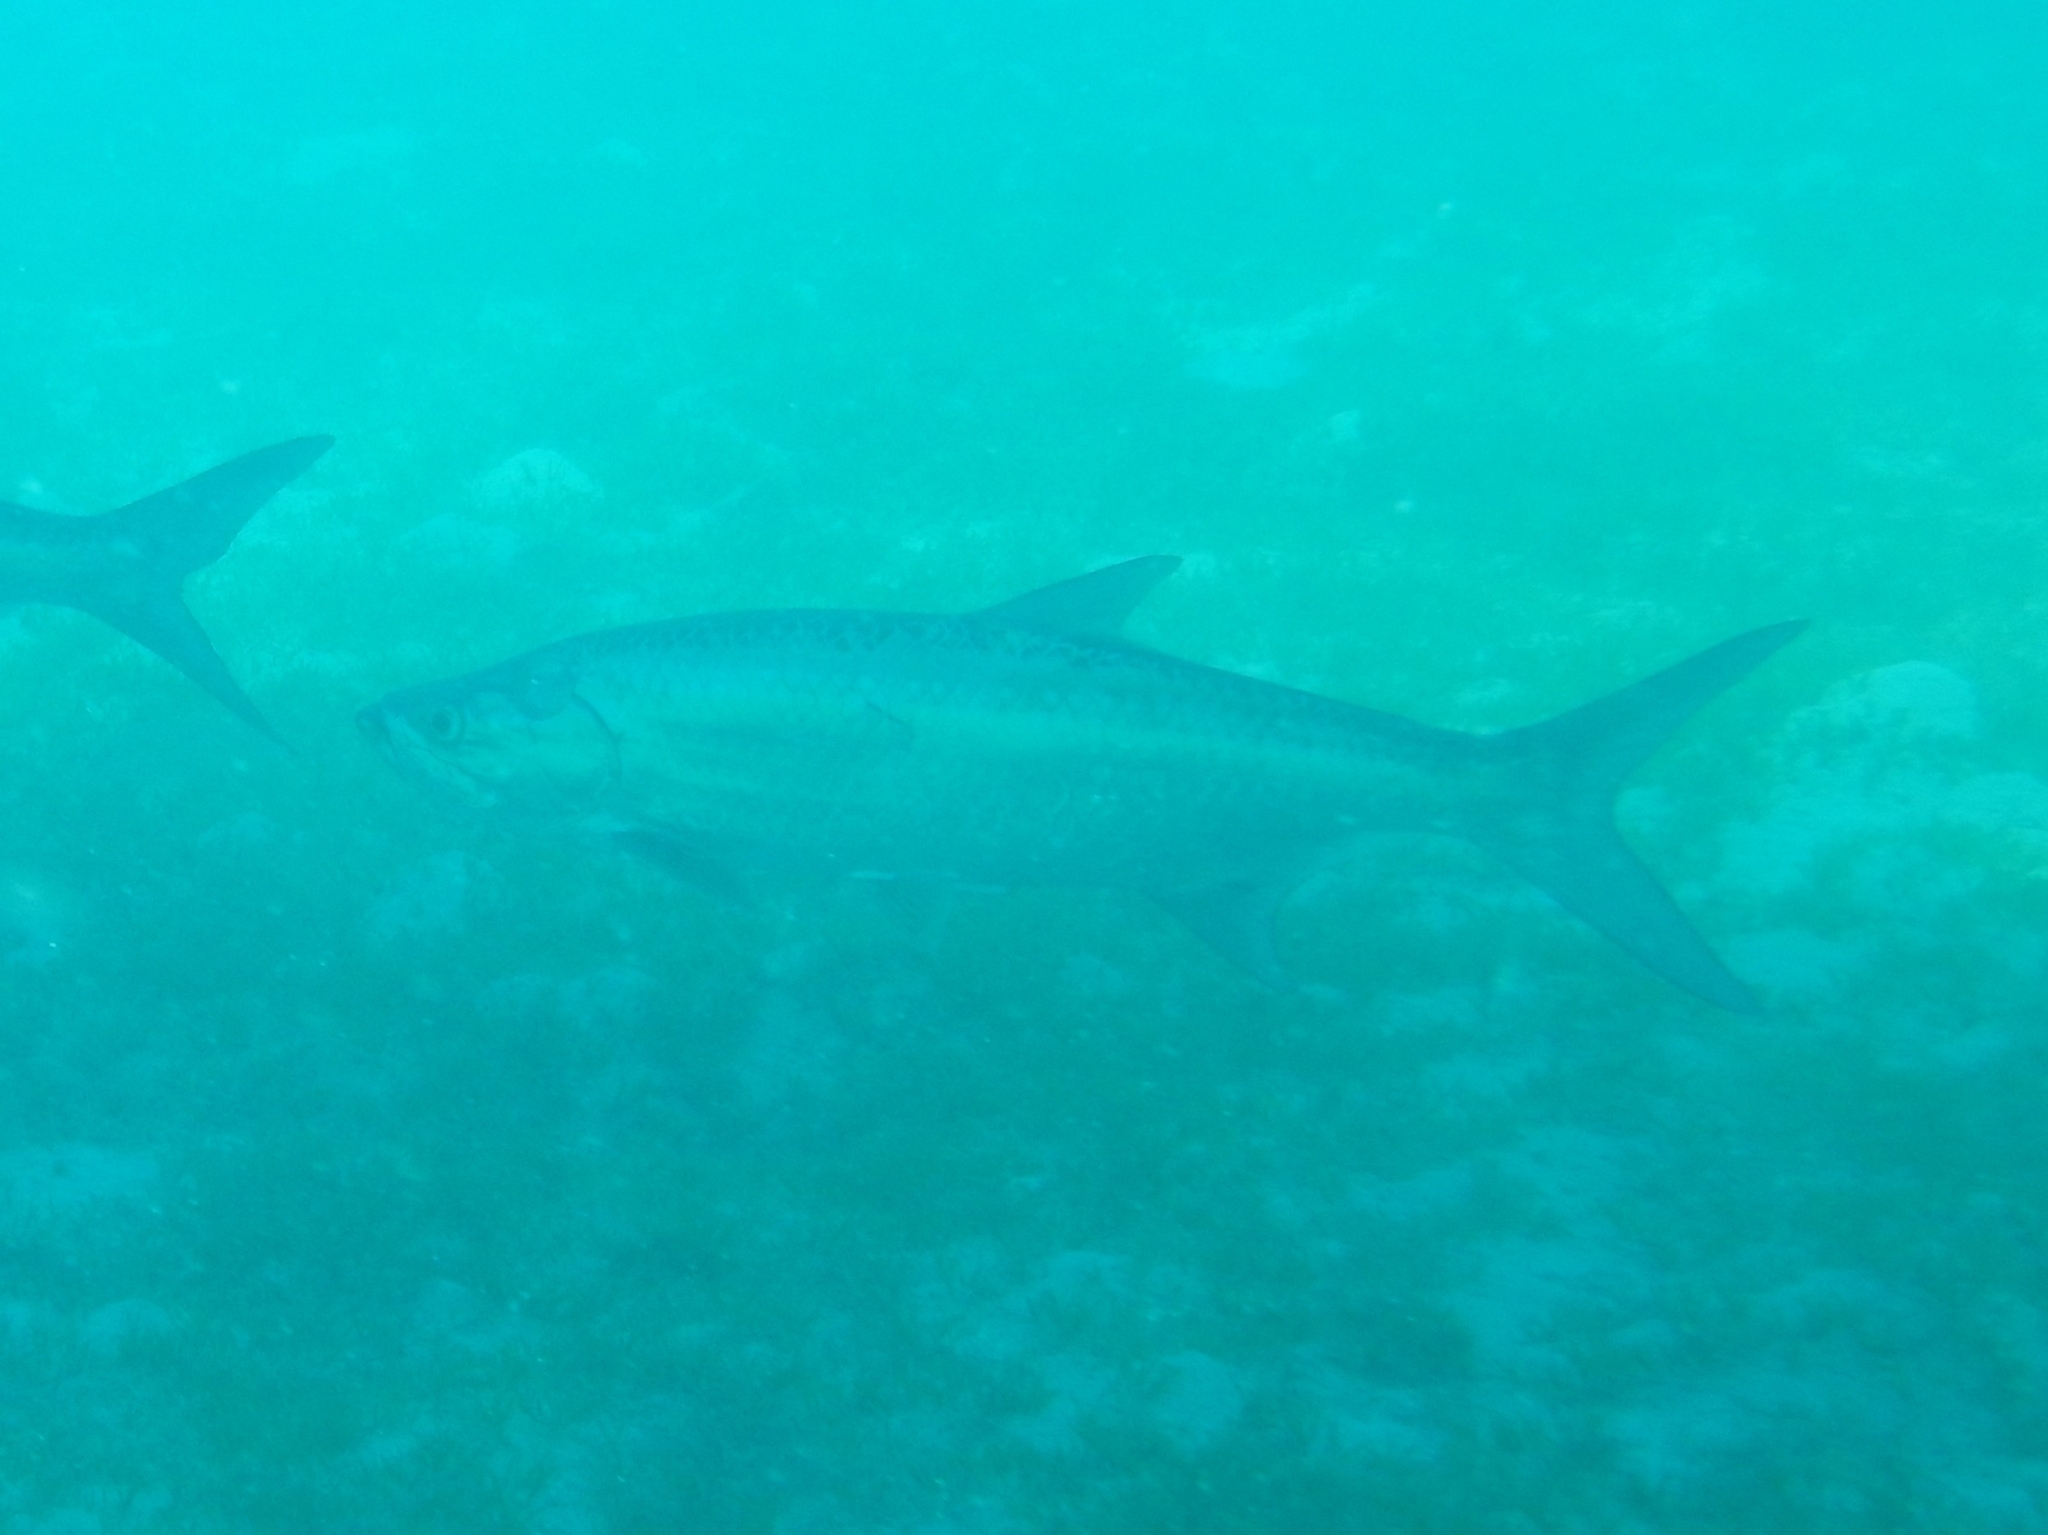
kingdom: Animalia
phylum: Chordata
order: Elopiformes
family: Megalopidae
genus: Megalops
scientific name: Megalops atlanticus
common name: Tarpon
